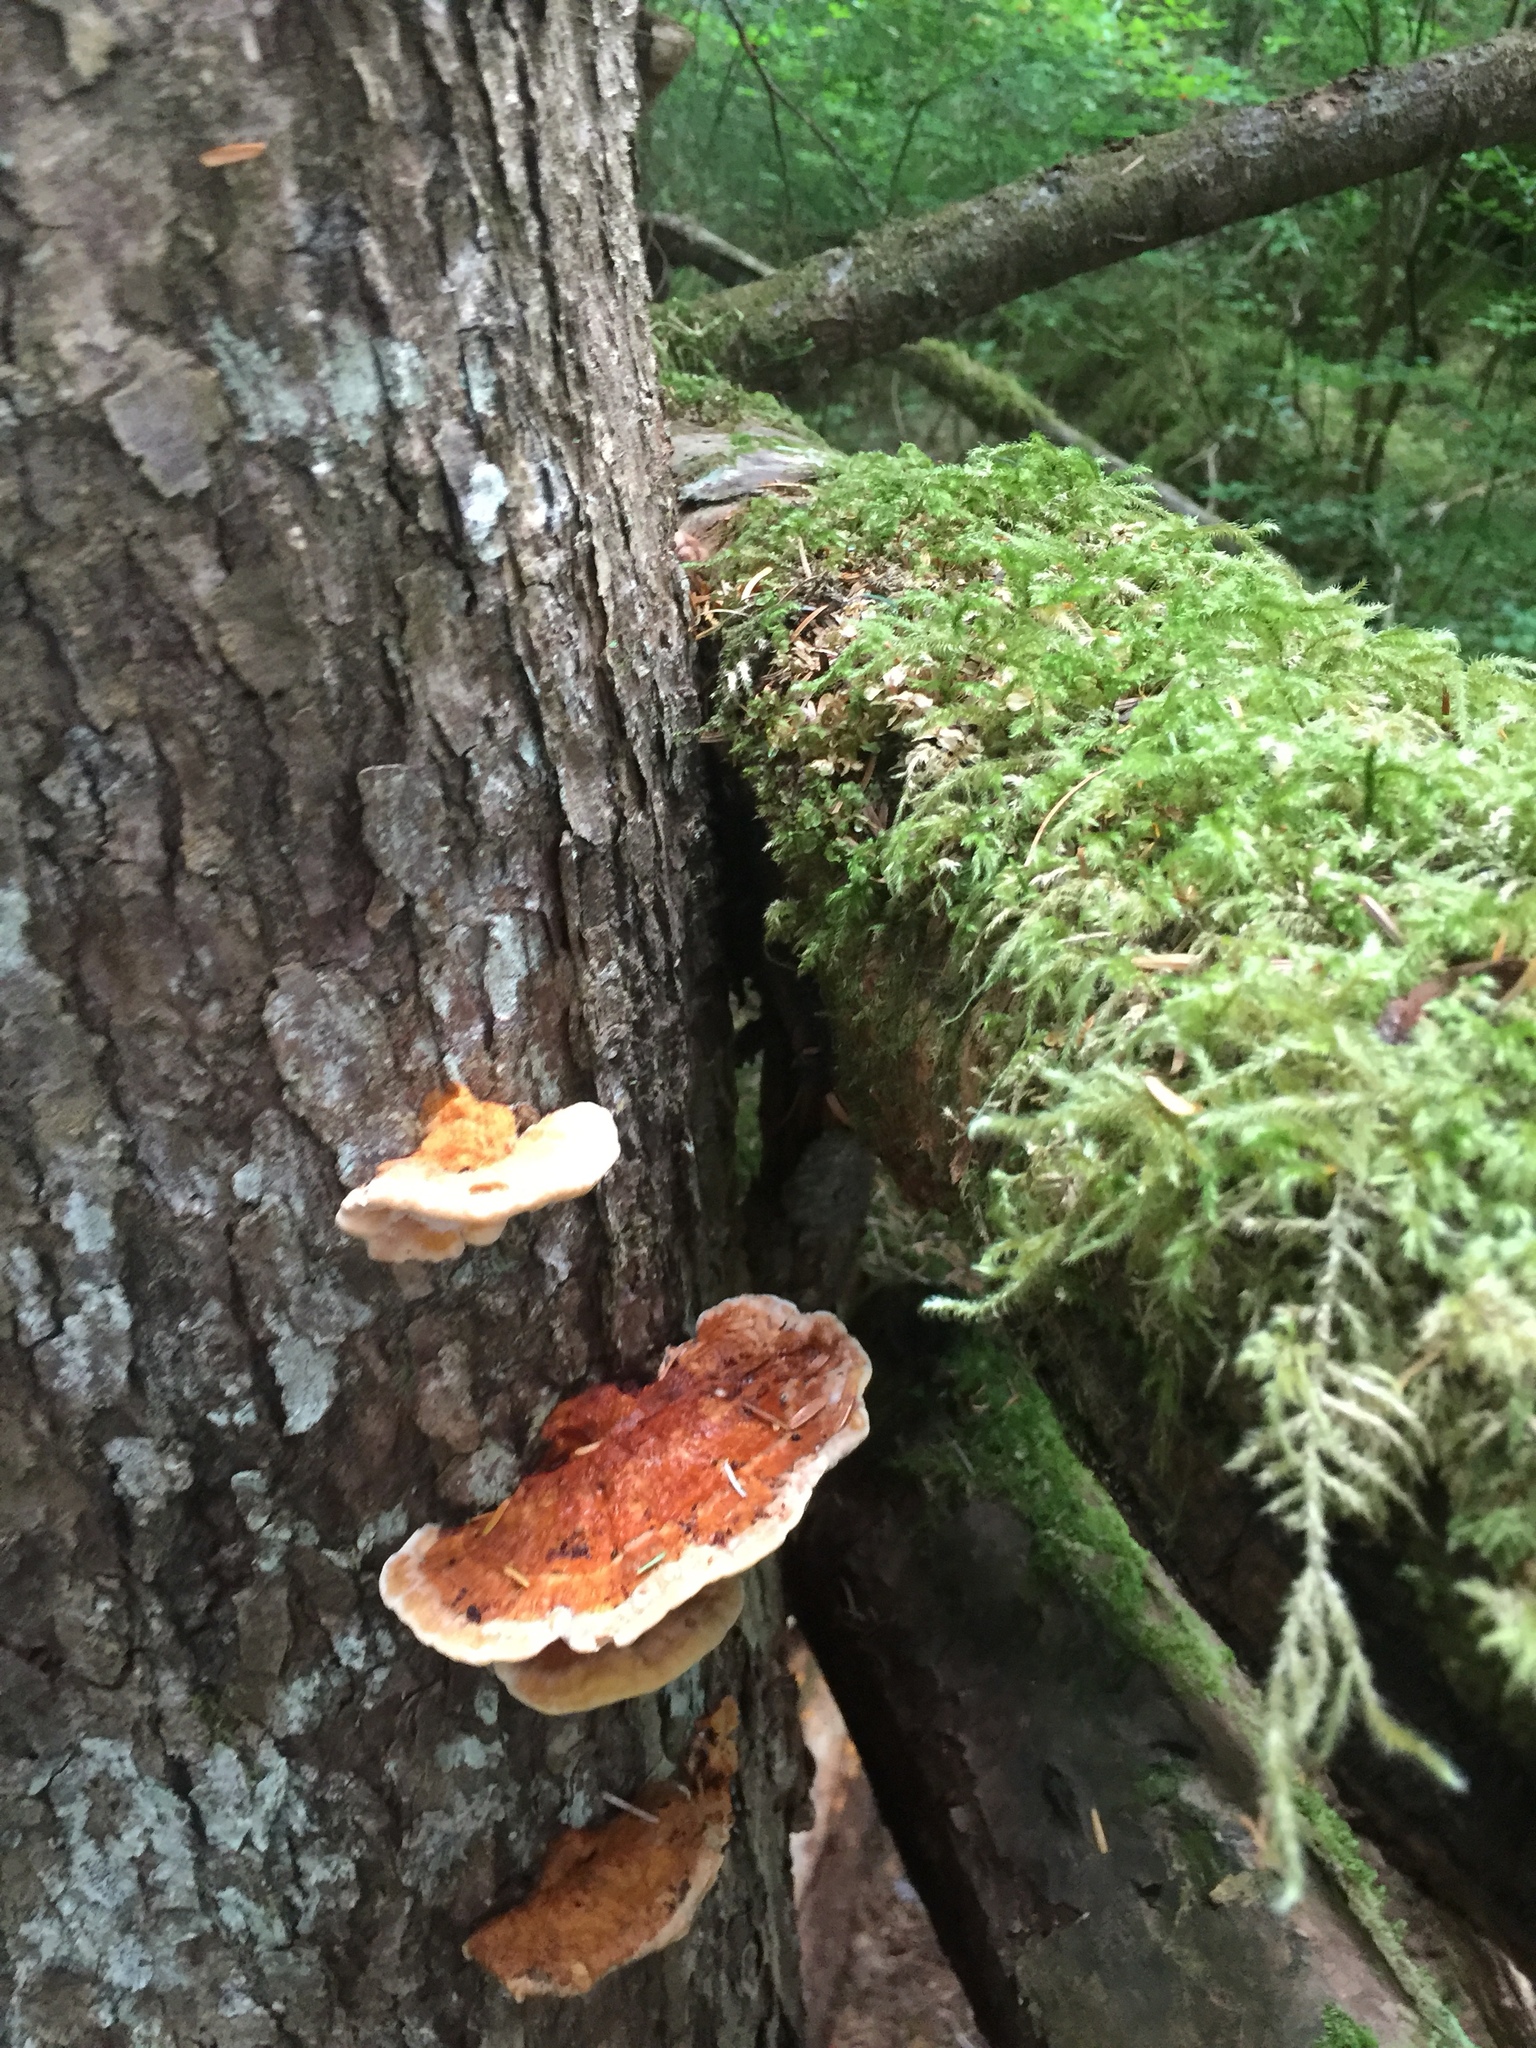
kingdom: Fungi
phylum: Basidiomycota
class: Agaricomycetes
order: Polyporales
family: Laetiporaceae
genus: Laetiporus
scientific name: Laetiporus conifericola
